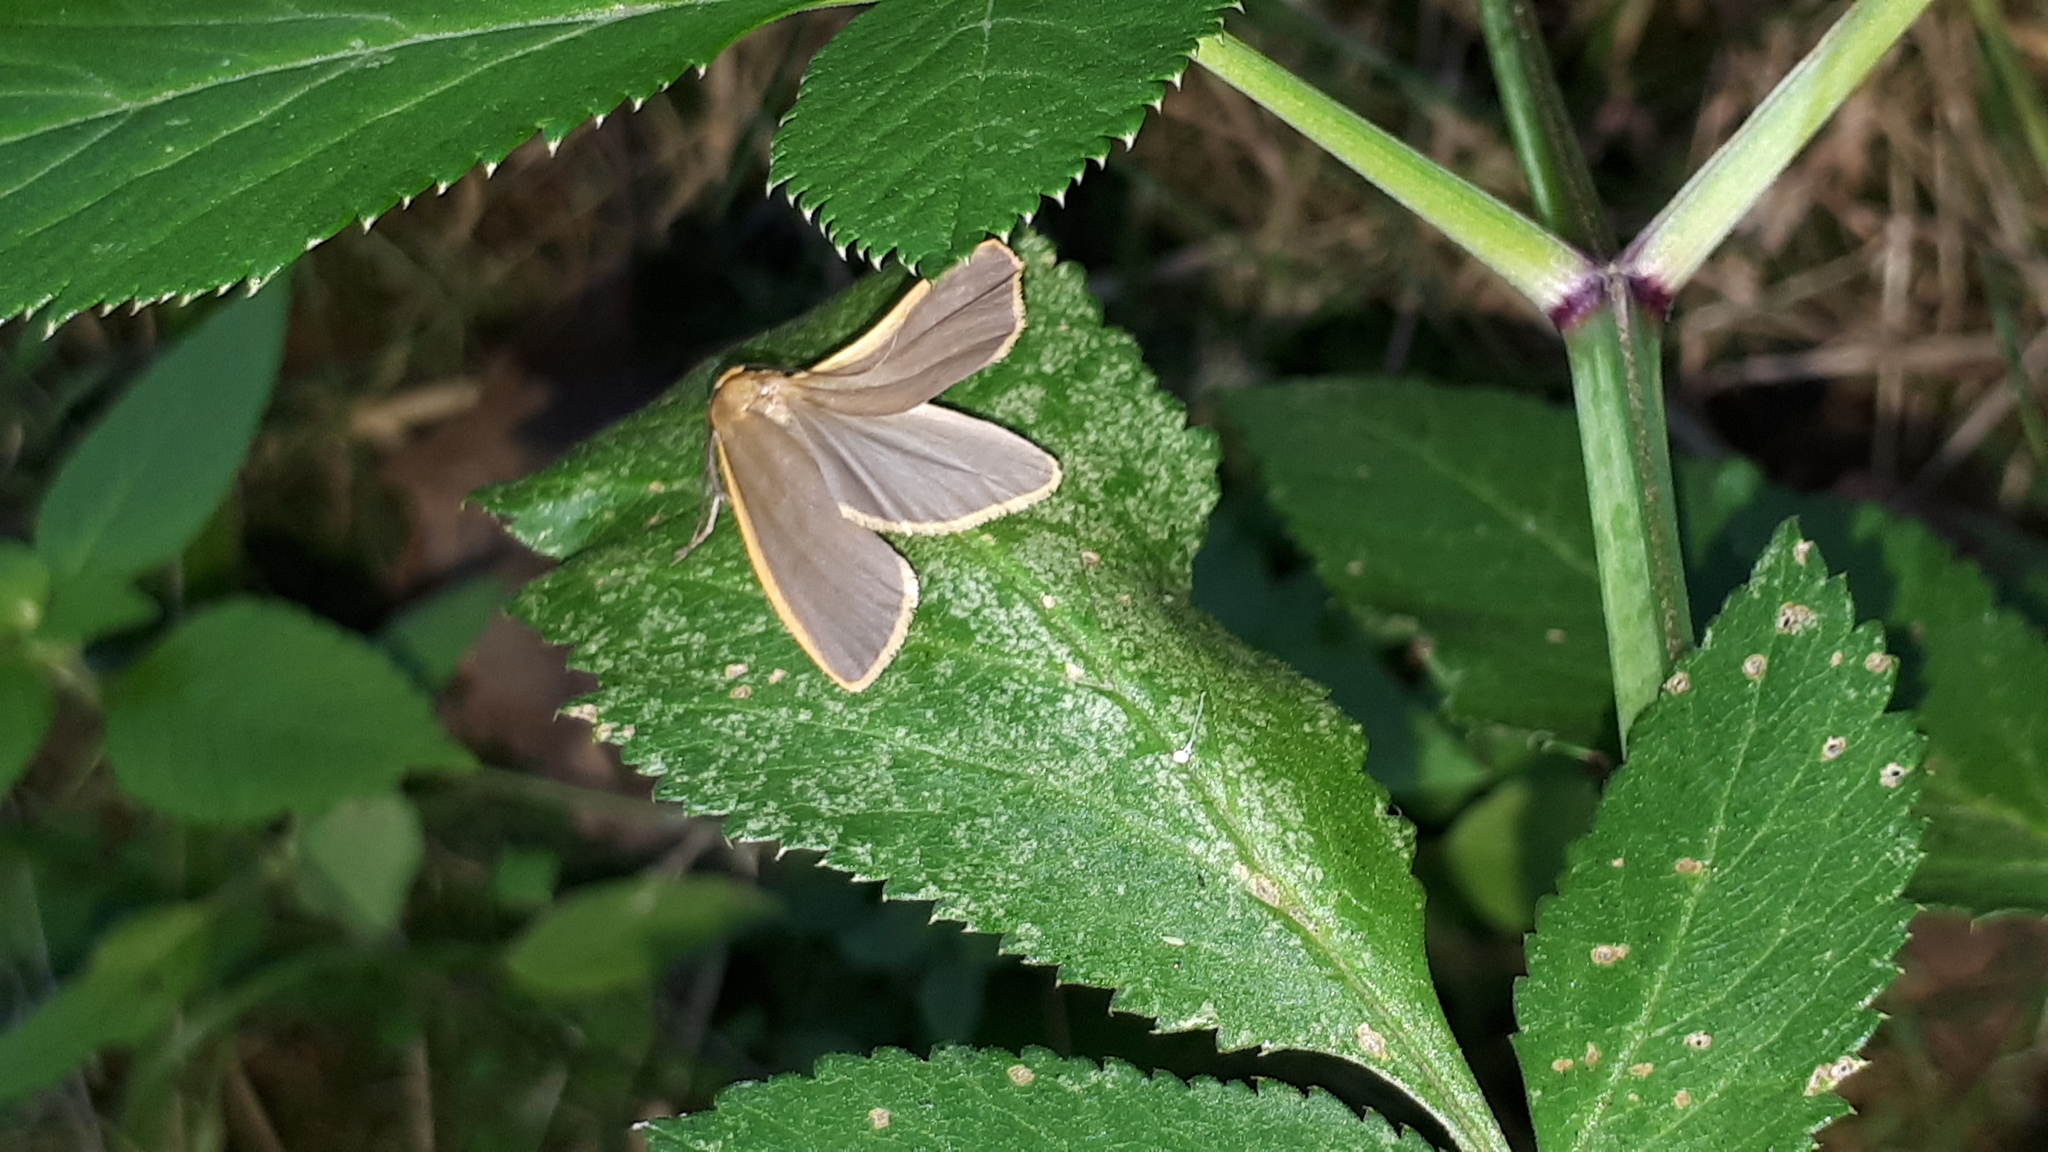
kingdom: Animalia
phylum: Arthropoda
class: Insecta
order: Lepidoptera
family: Erebidae
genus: Katha
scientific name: Katha depressa
